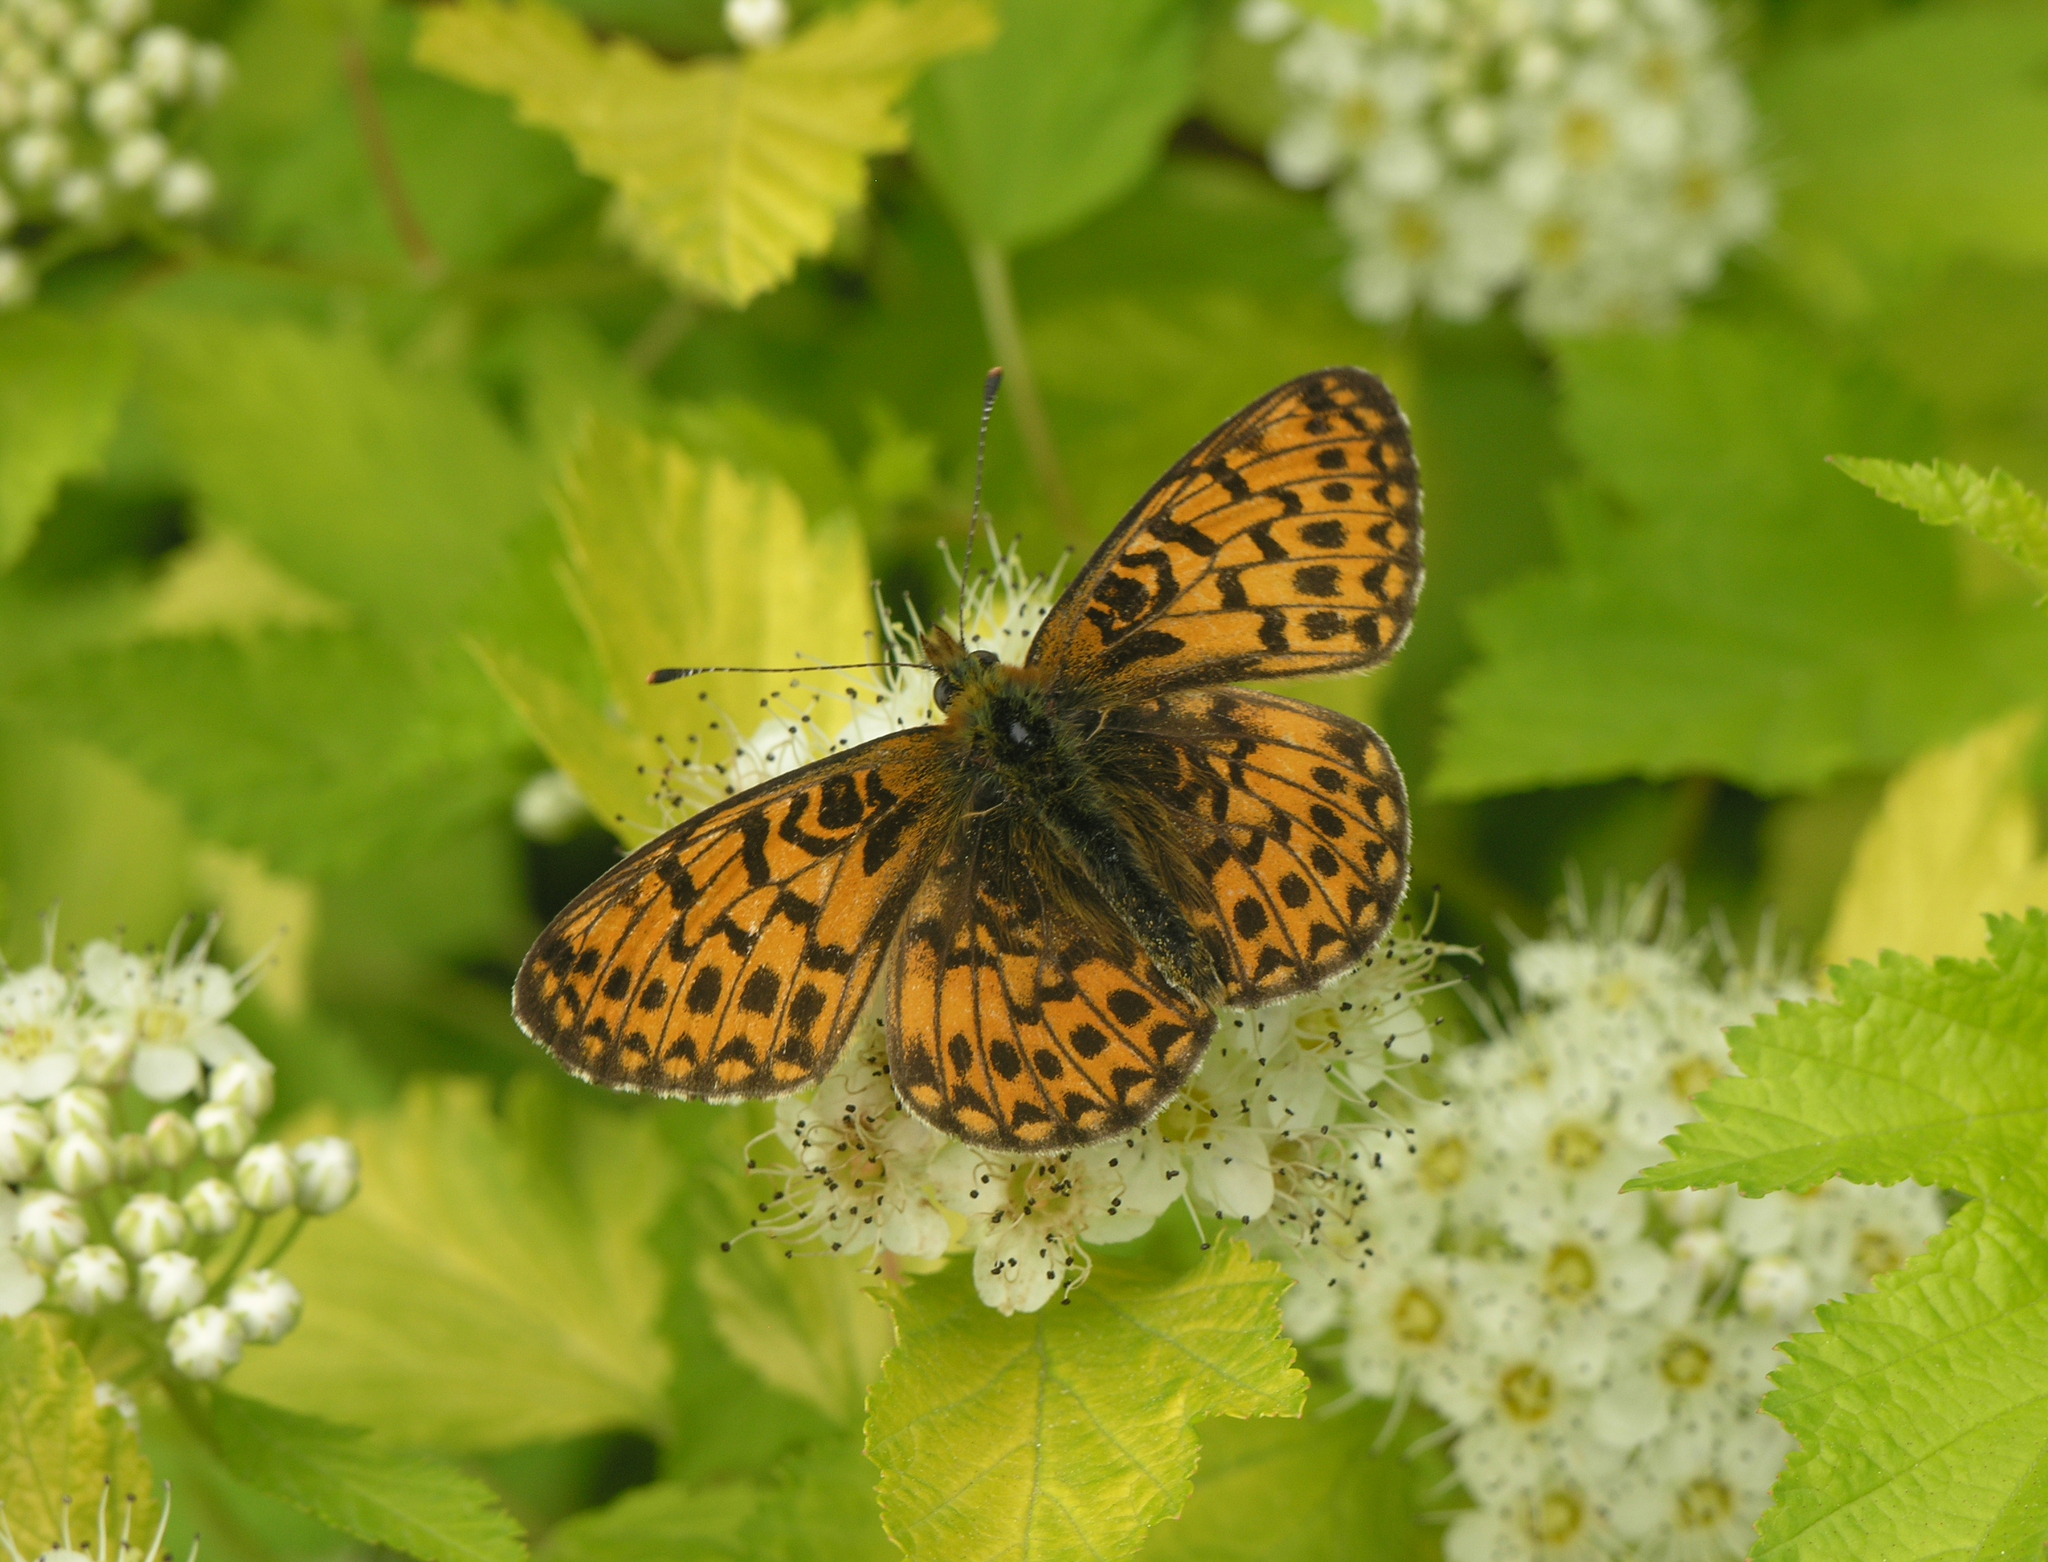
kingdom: Animalia
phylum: Arthropoda
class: Insecta
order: Lepidoptera
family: Nymphalidae
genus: Clossiana
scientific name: Clossiana euphrosyne
